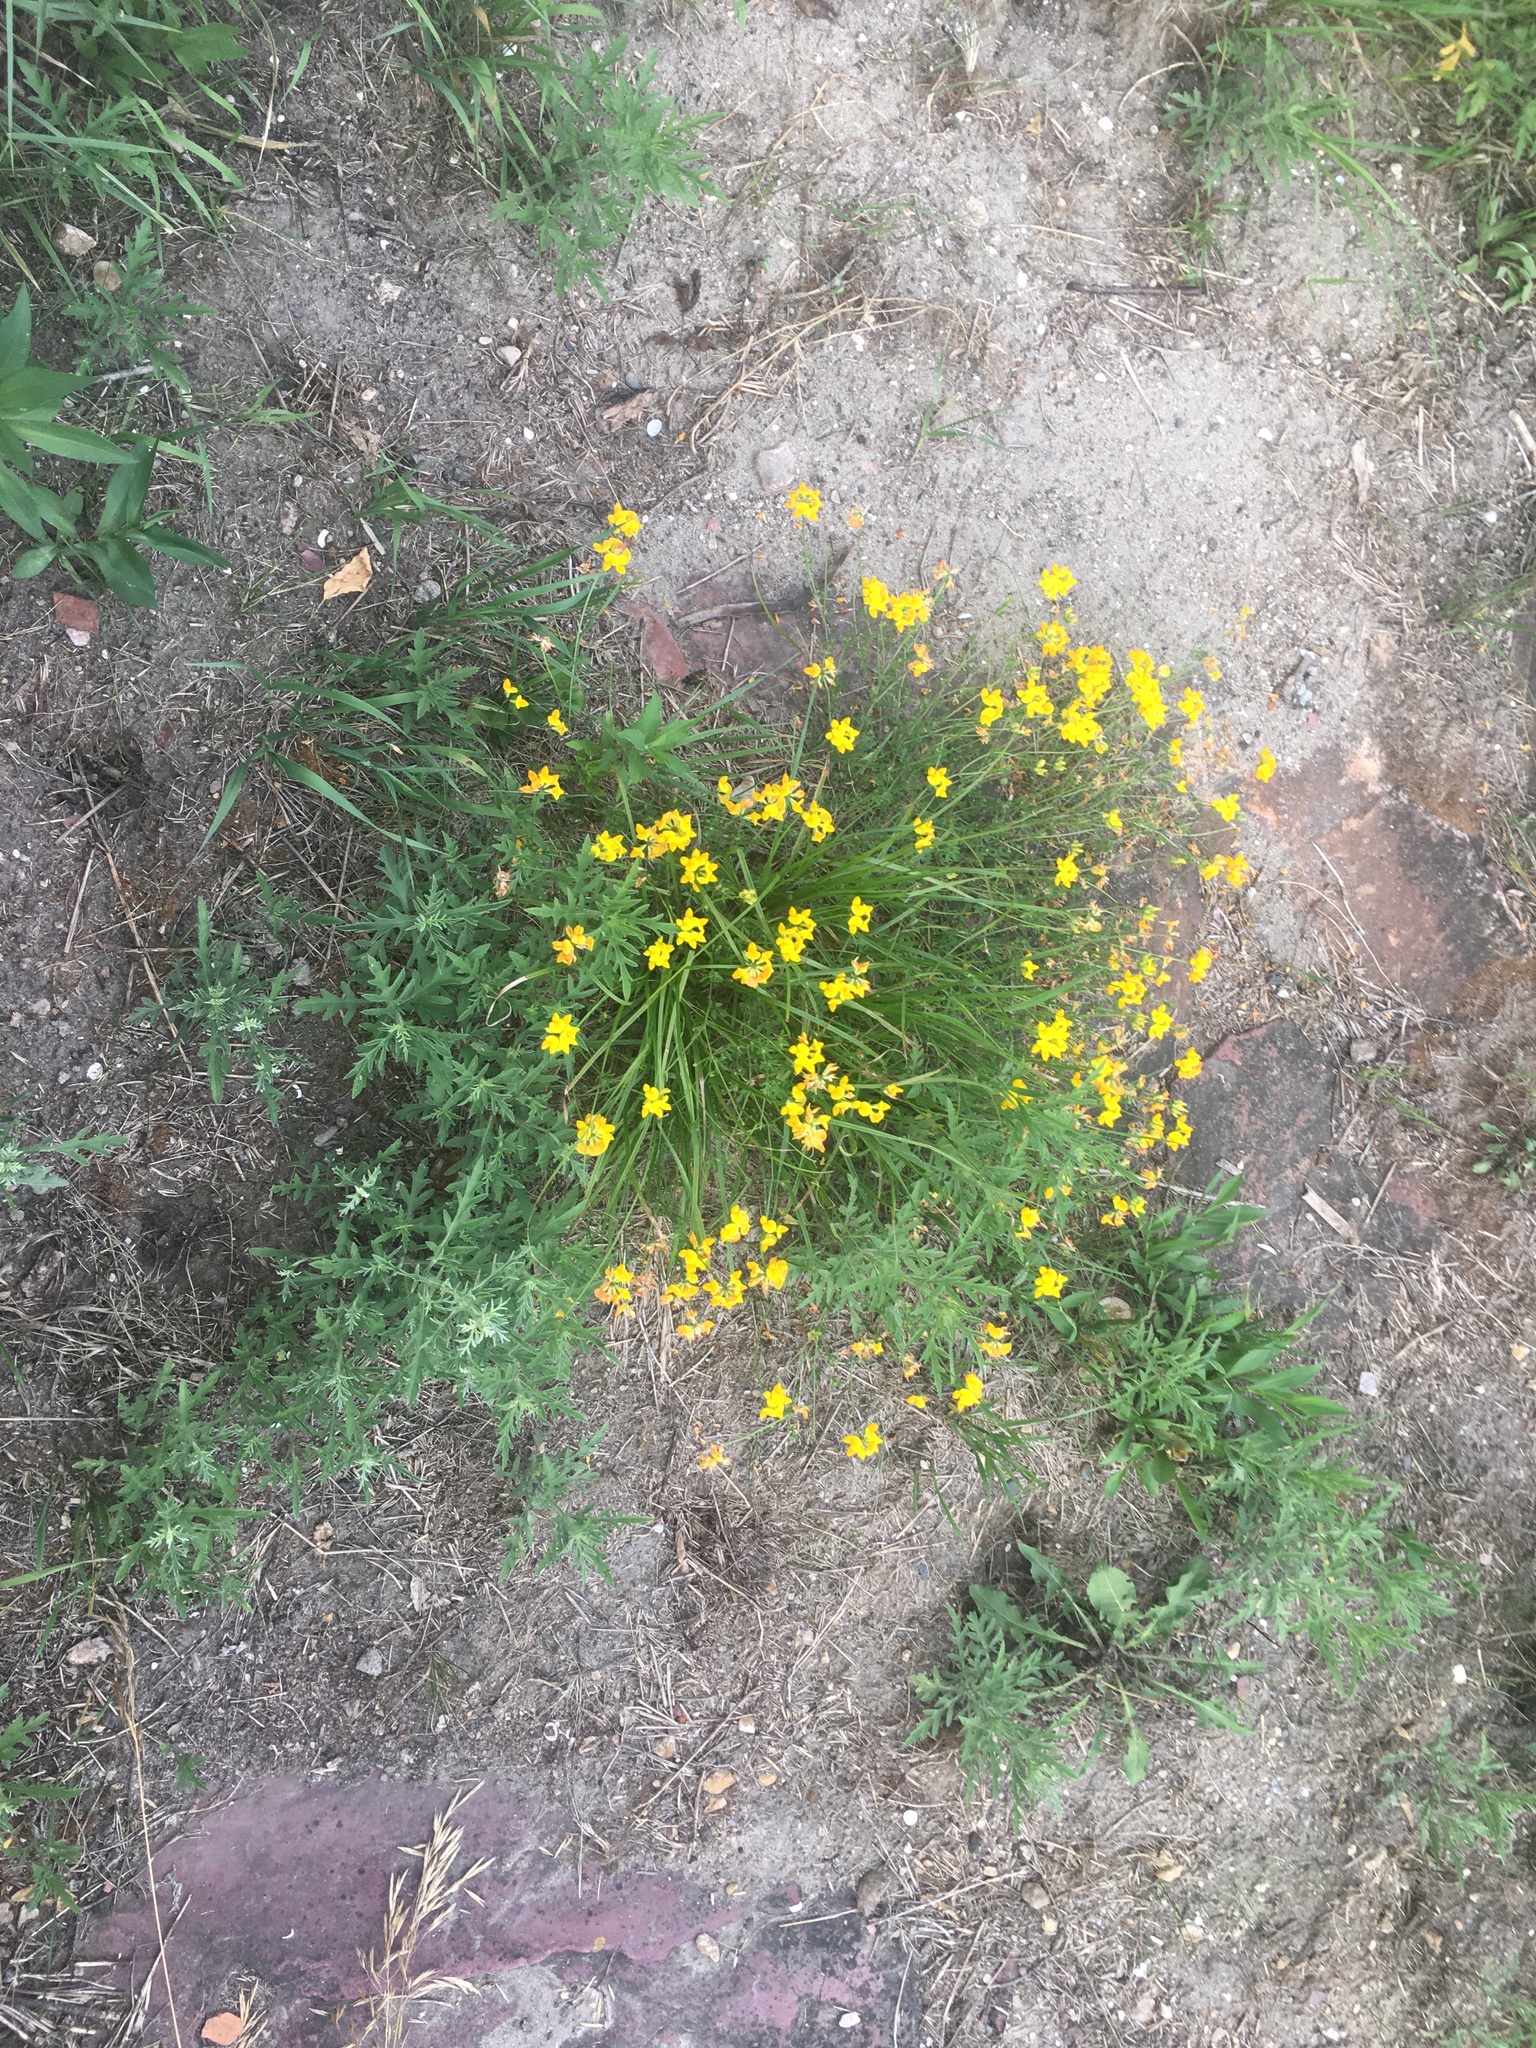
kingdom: Plantae
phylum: Tracheophyta
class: Magnoliopsida
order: Fabales
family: Fabaceae
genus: Lotus
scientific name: Lotus corniculatus
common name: Common bird's-foot-trefoil
